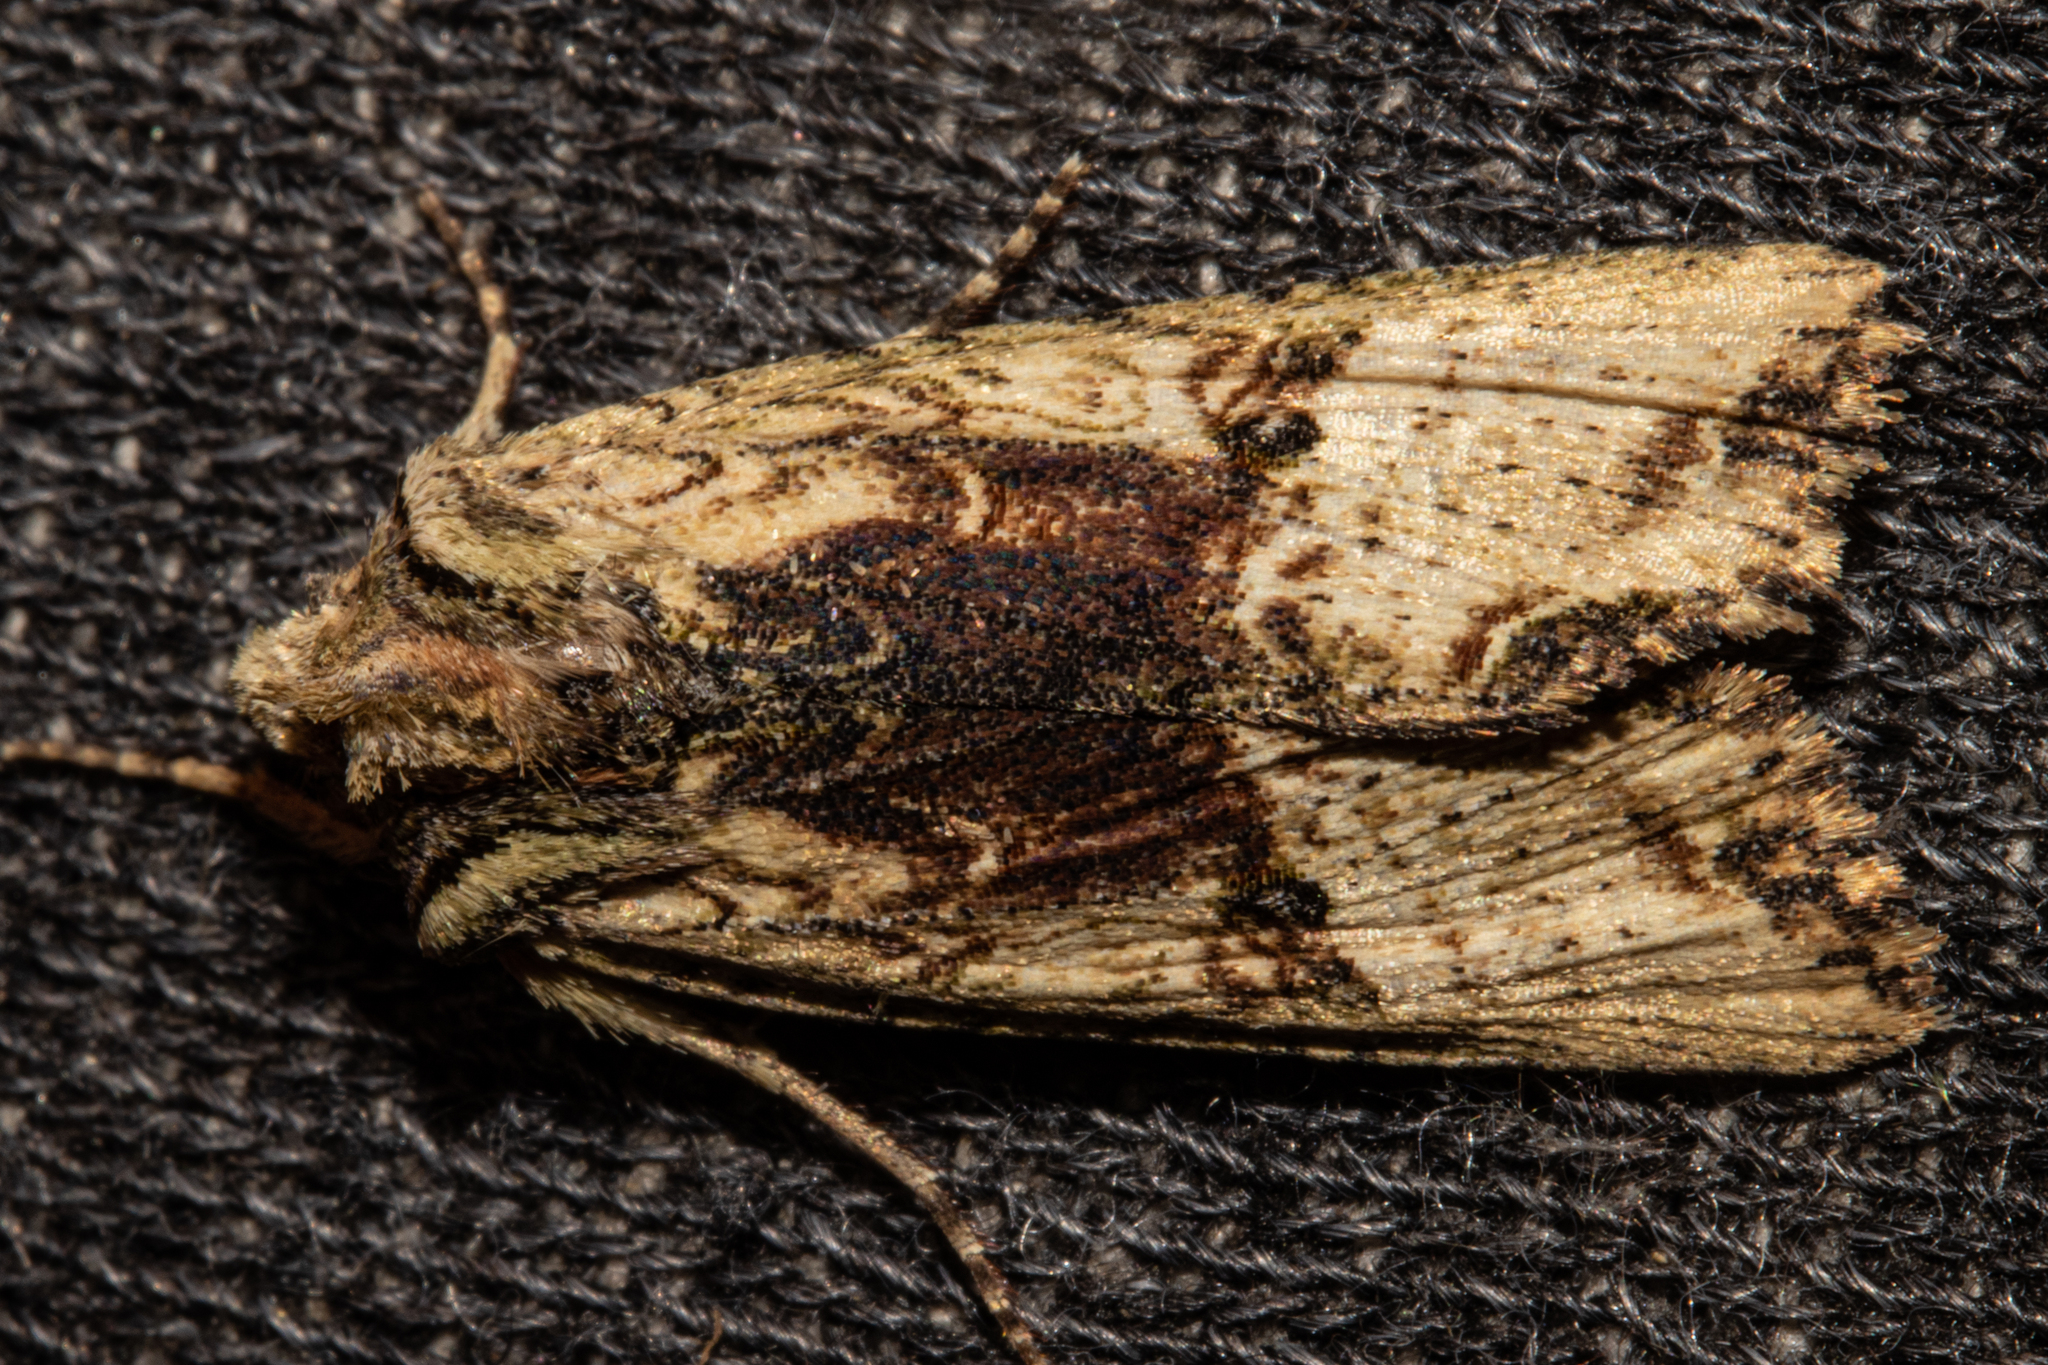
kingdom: Animalia
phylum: Arthropoda
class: Insecta
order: Lepidoptera
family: Noctuidae
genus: Meterana
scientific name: Meterana coeleno
